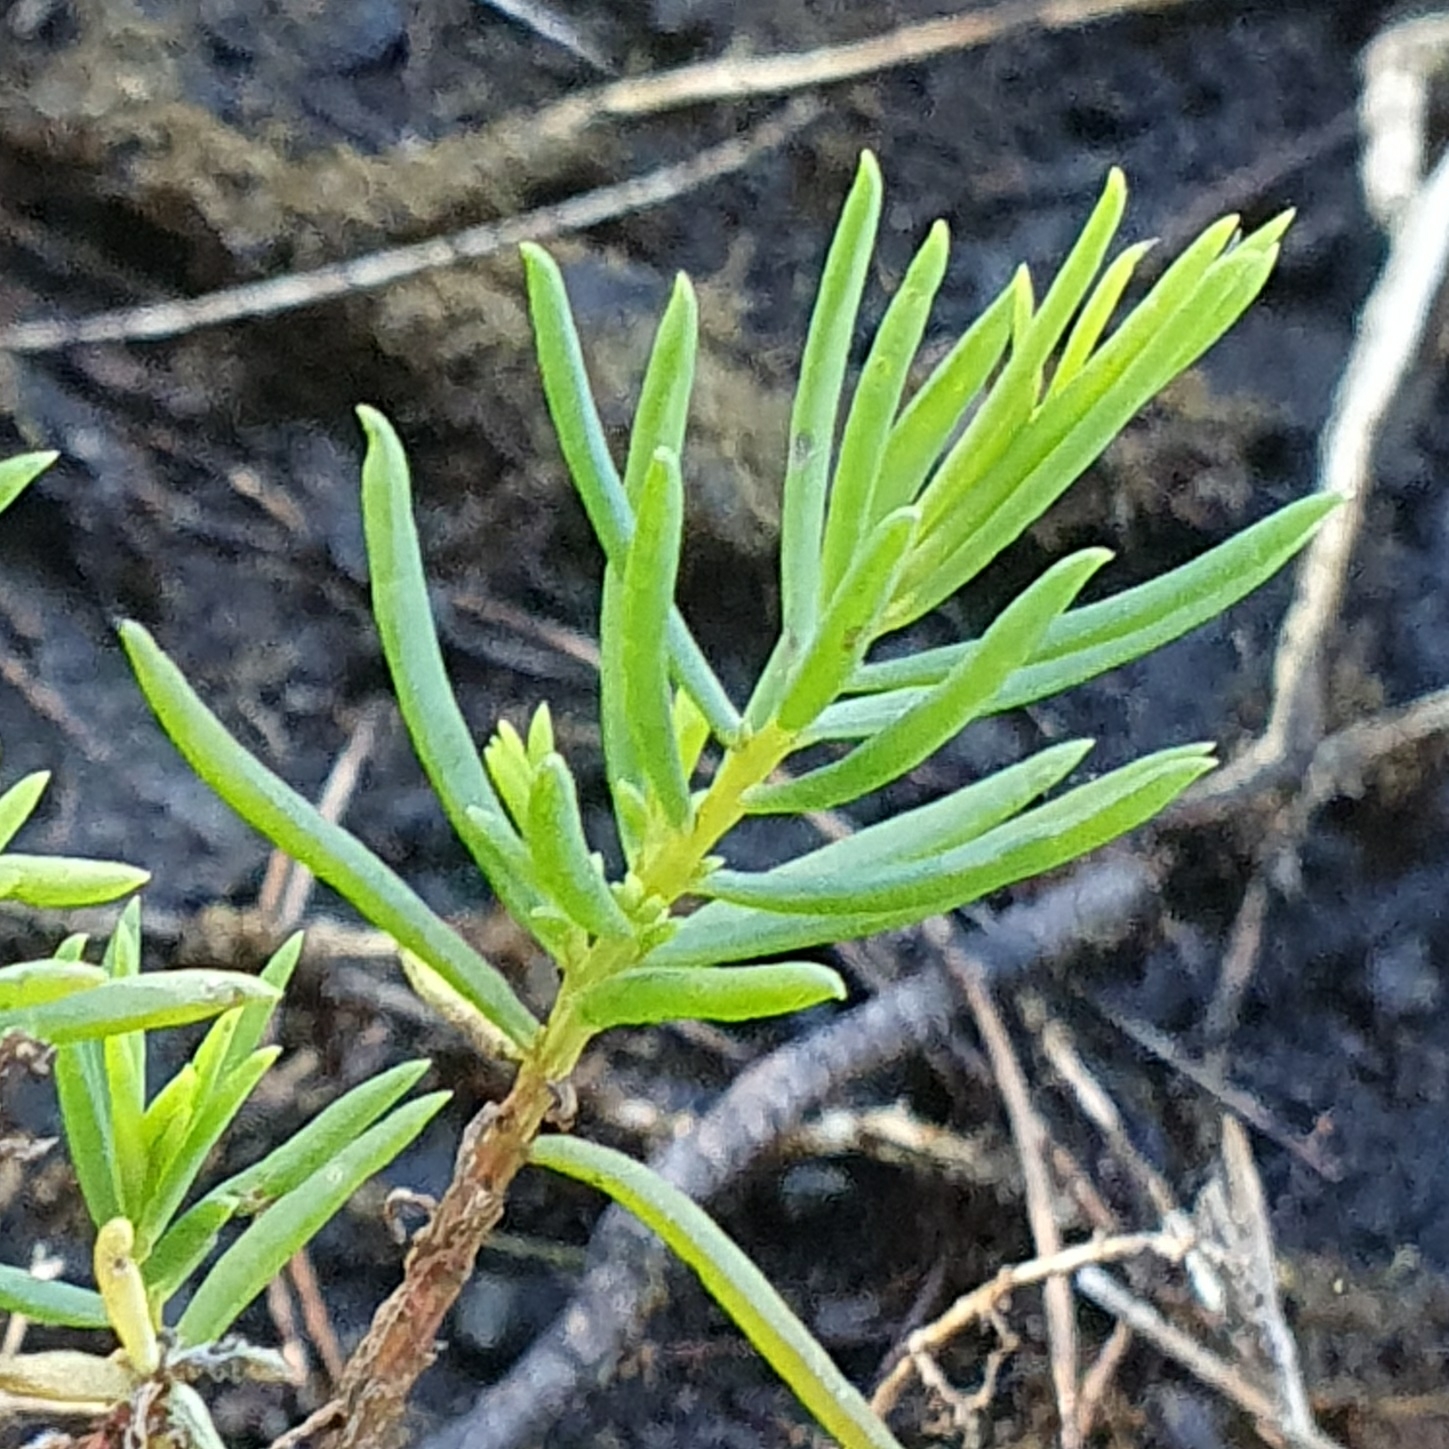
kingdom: Plantae
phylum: Tracheophyta
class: Magnoliopsida
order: Caryophyllales
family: Amaranthaceae
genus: Suaeda
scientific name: Suaeda australis
